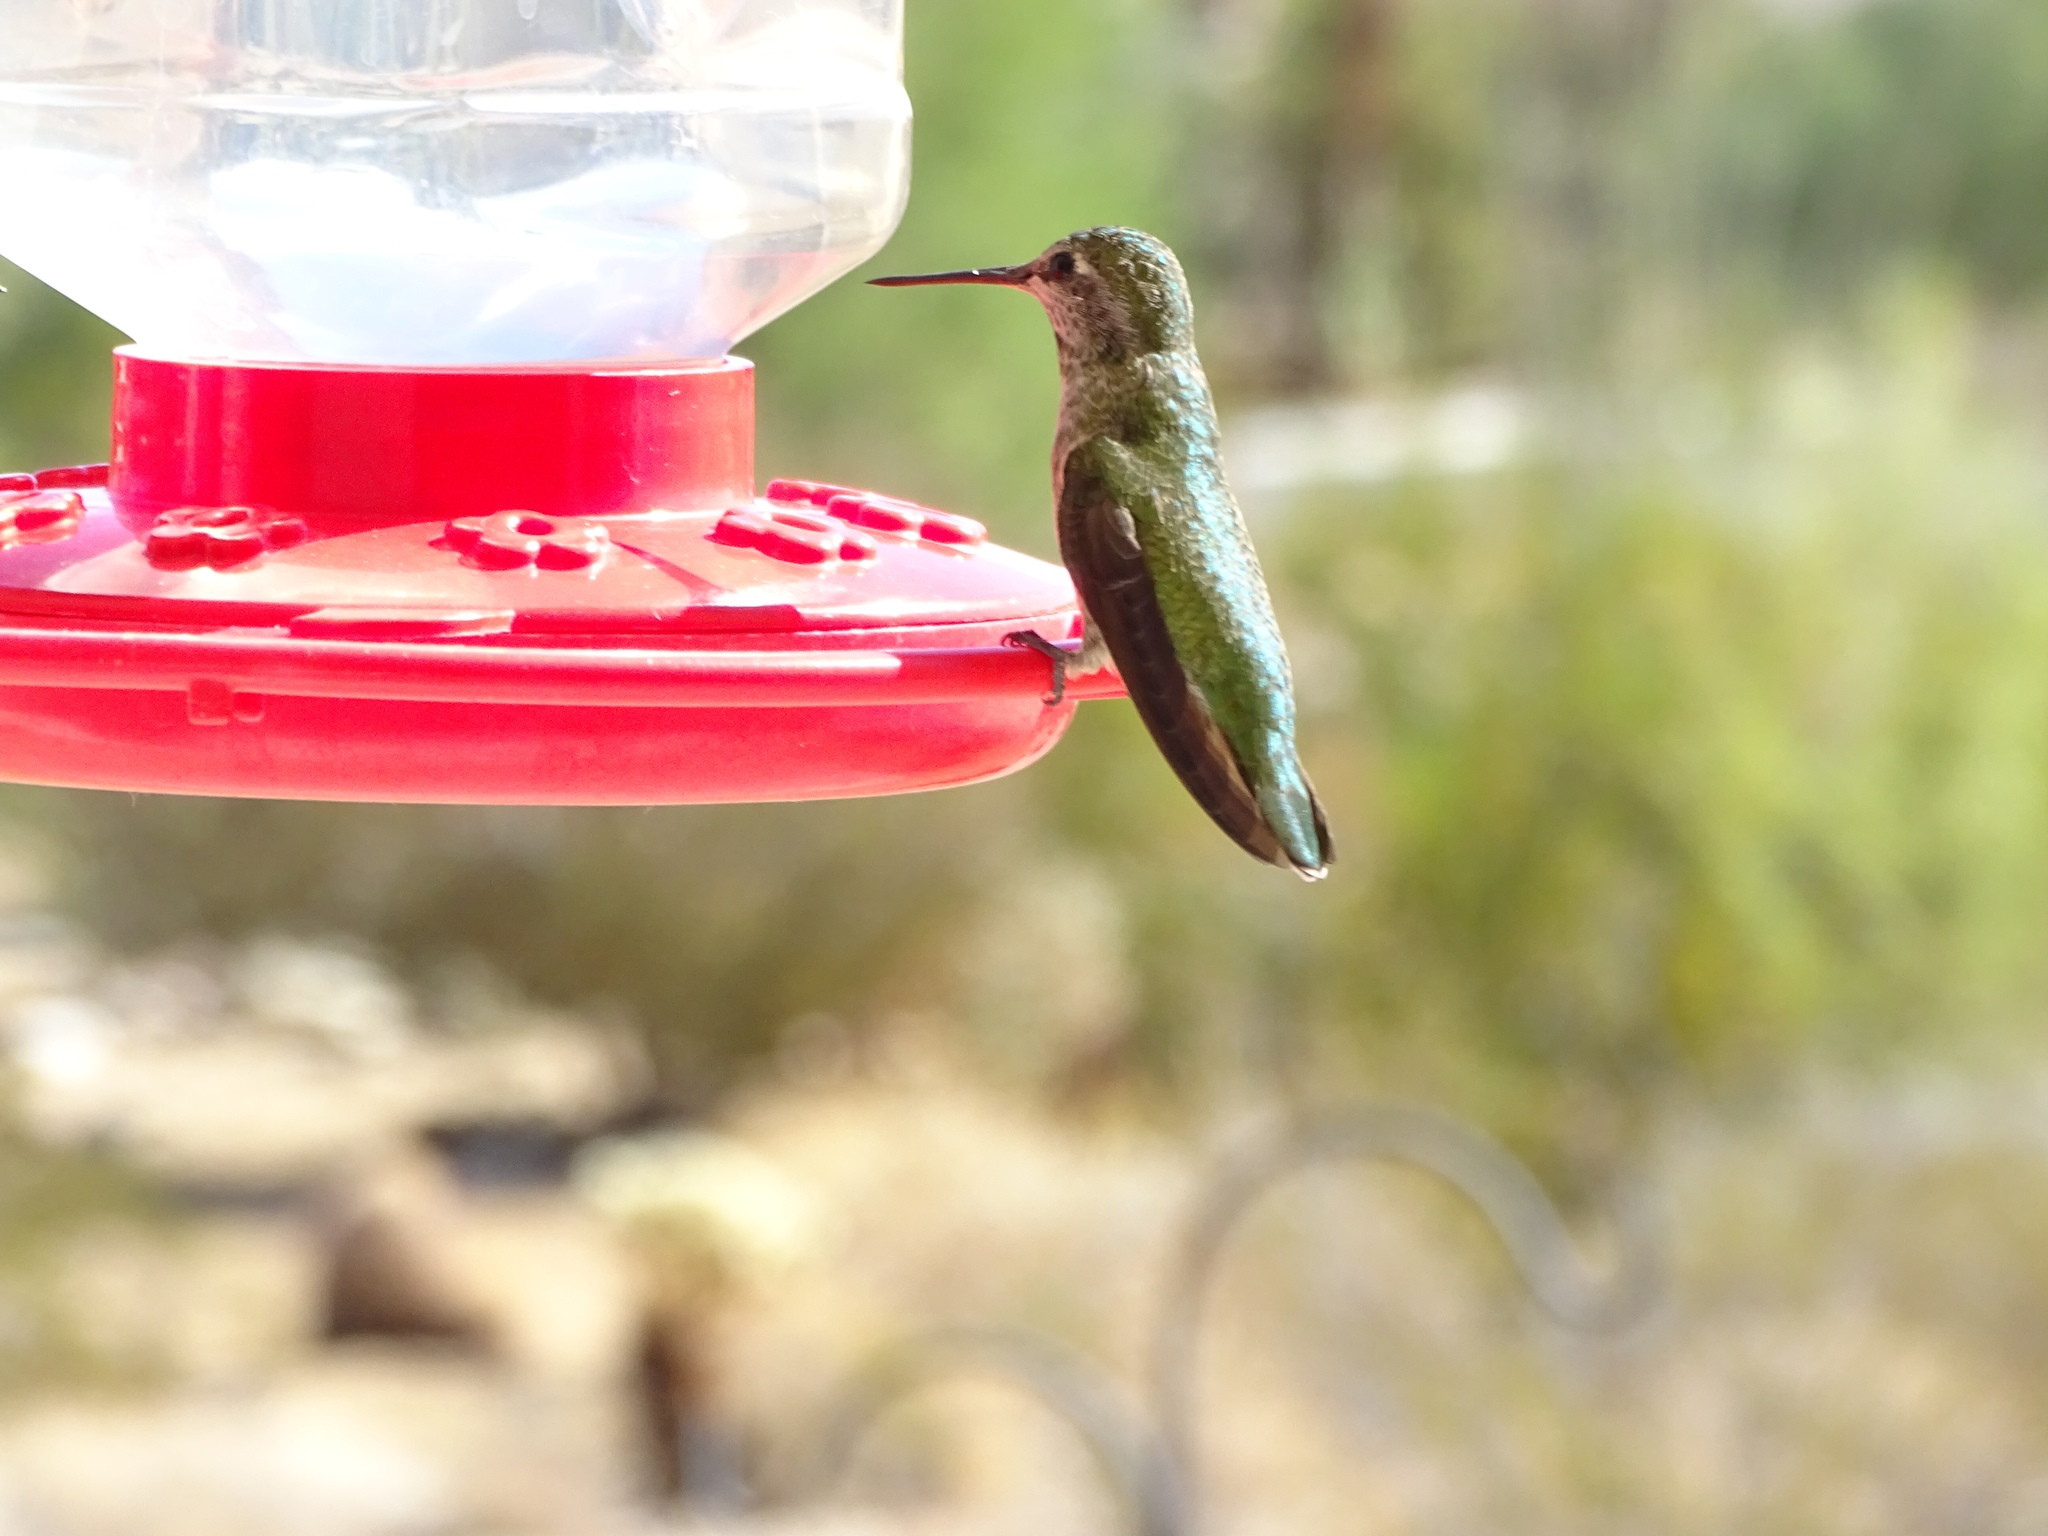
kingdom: Animalia
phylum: Chordata
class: Aves
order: Apodiformes
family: Trochilidae
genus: Calypte
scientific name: Calypte anna
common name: Anna's hummingbird
